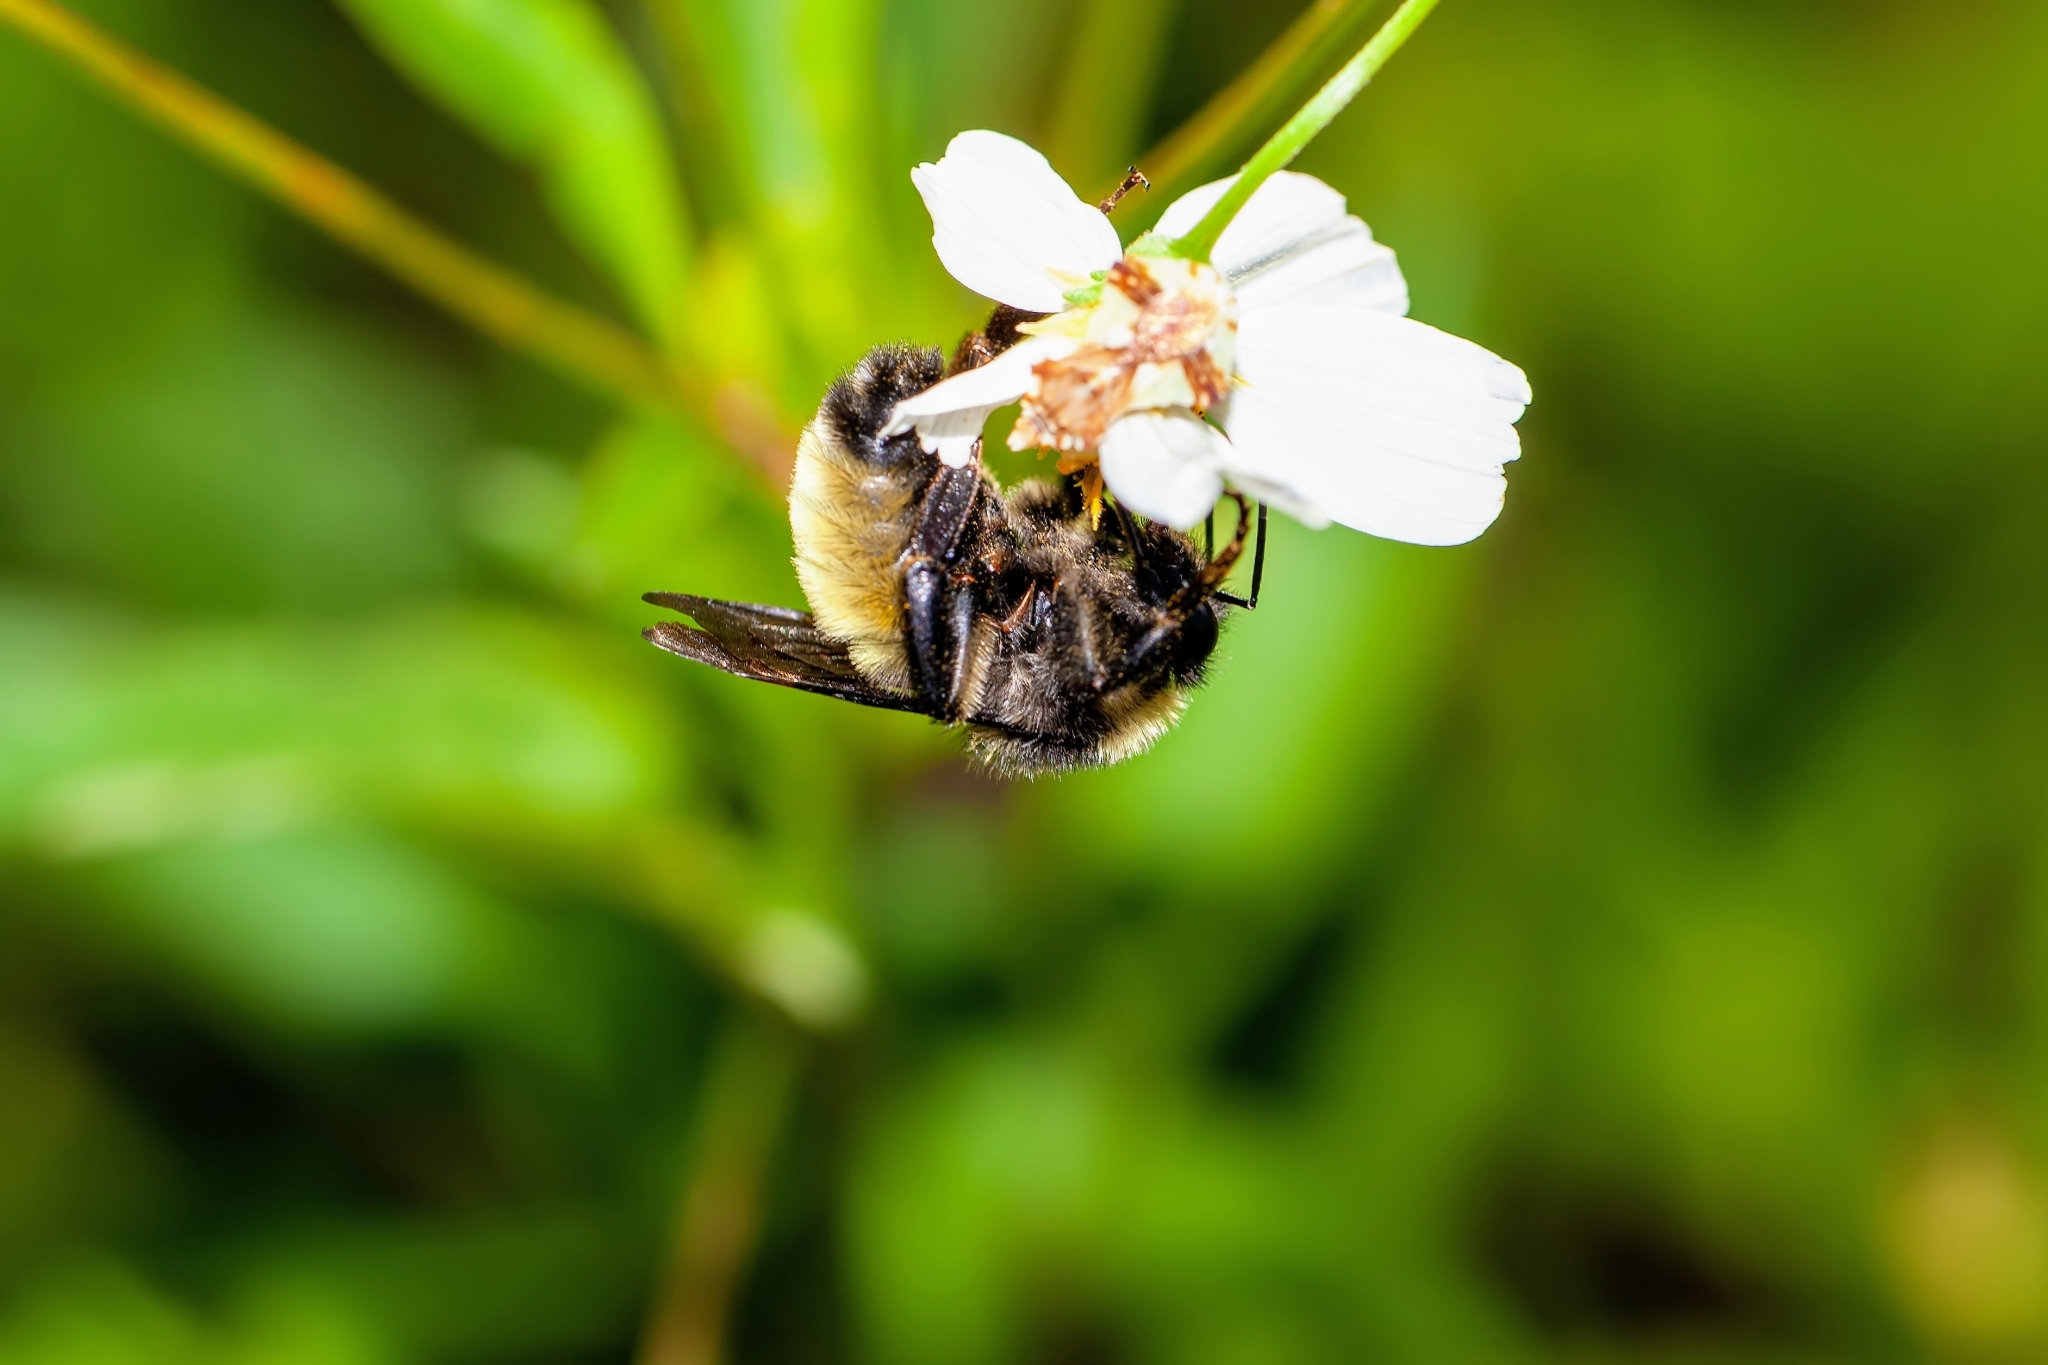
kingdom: Animalia
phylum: Arthropoda
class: Insecta
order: Hymenoptera
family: Apidae
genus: Bombus
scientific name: Bombus pensylvanicus
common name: Bumble bee
